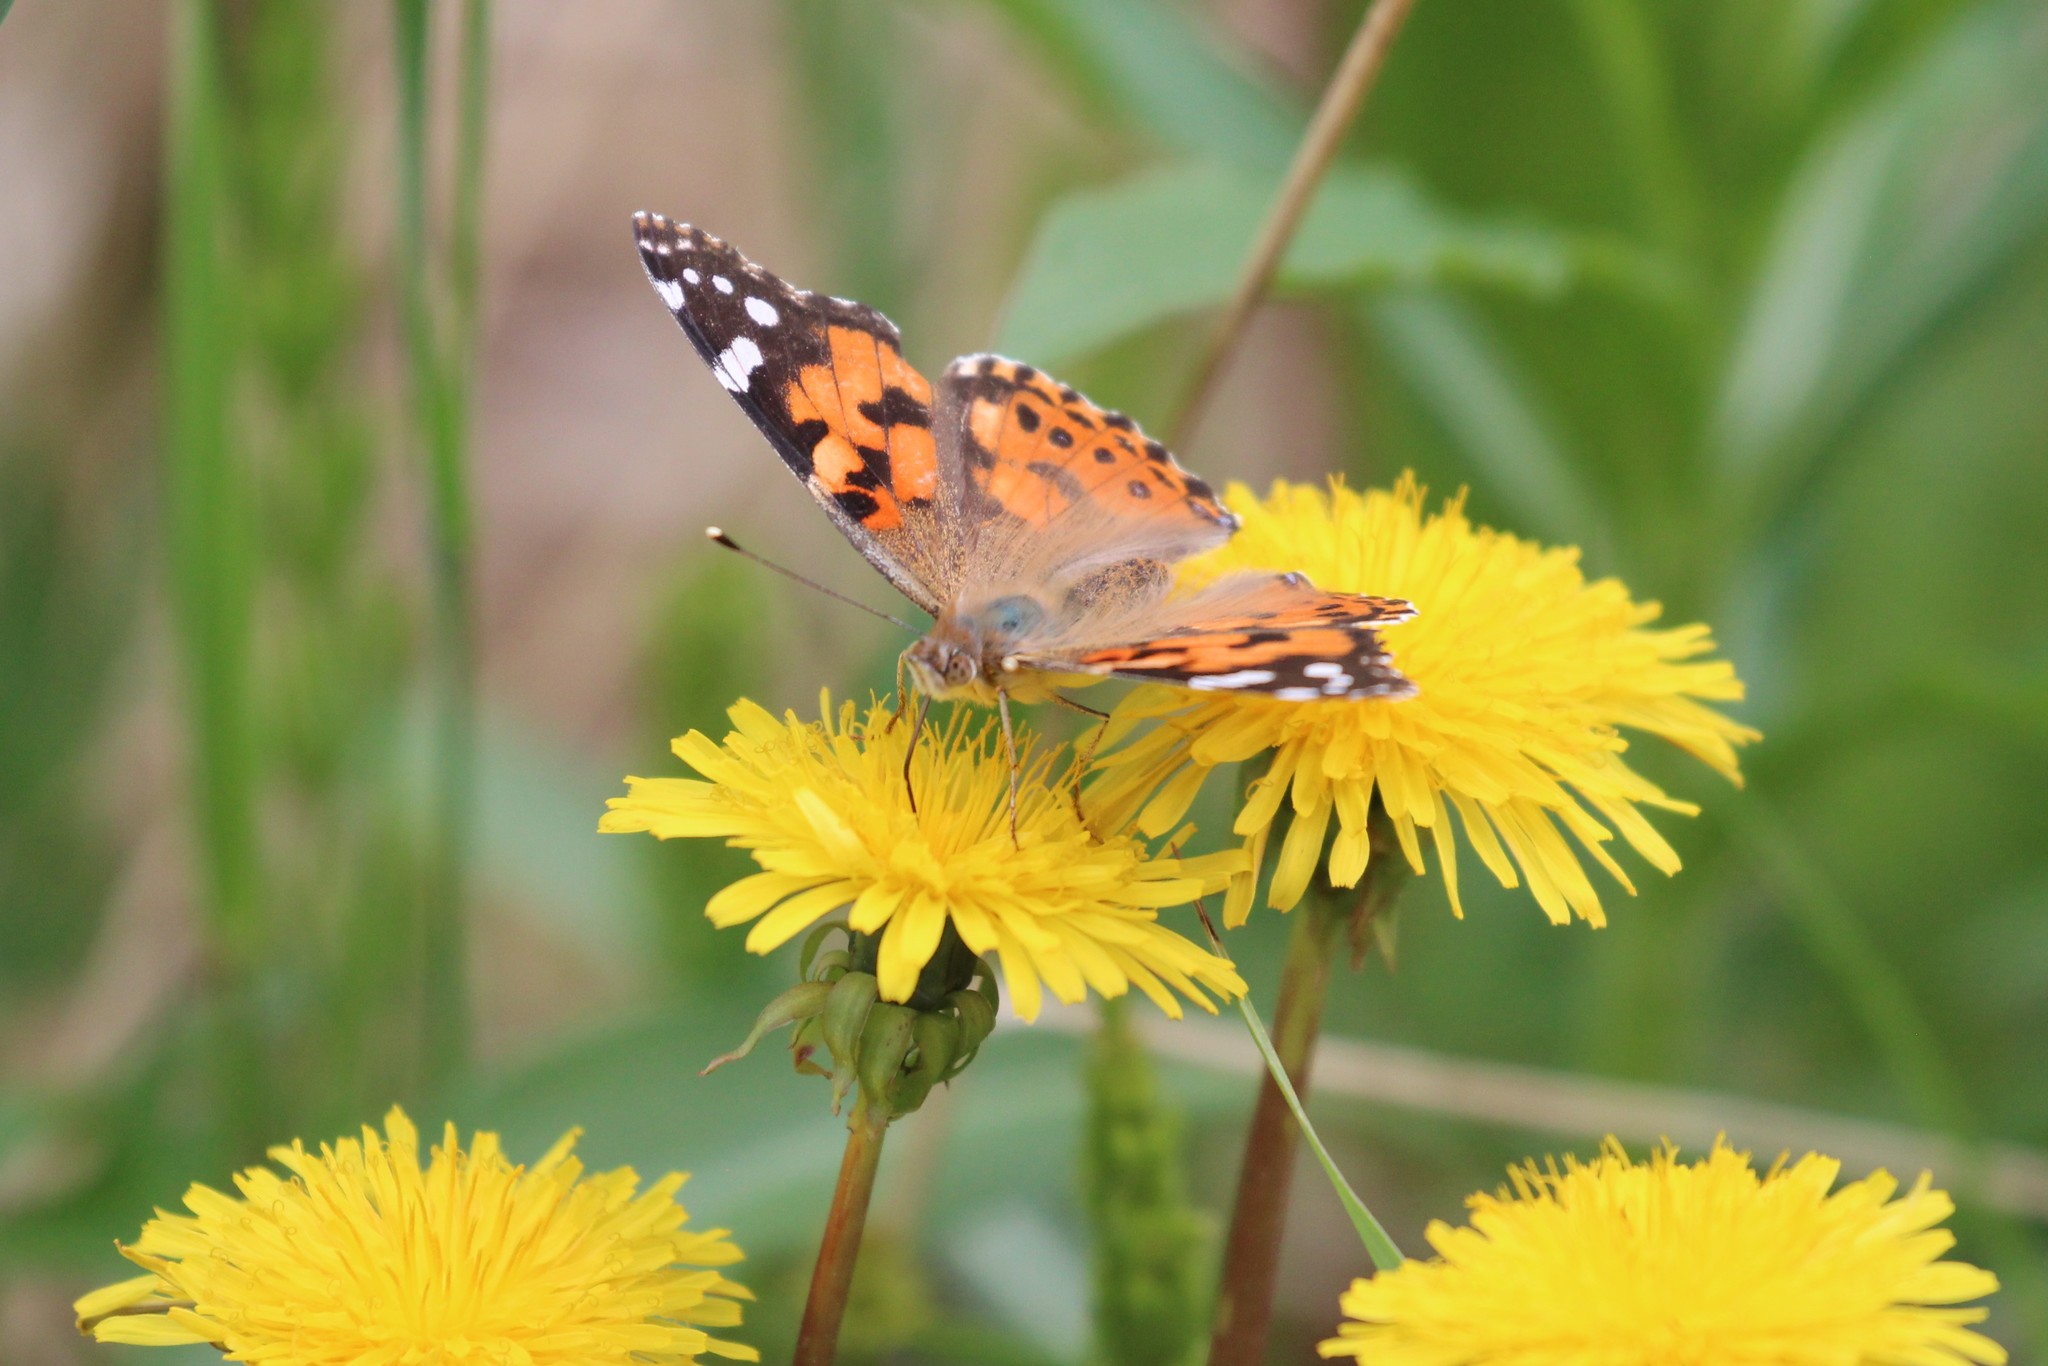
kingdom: Animalia
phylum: Arthropoda
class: Insecta
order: Lepidoptera
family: Nymphalidae
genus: Vanessa
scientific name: Vanessa cardui
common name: Painted lady
